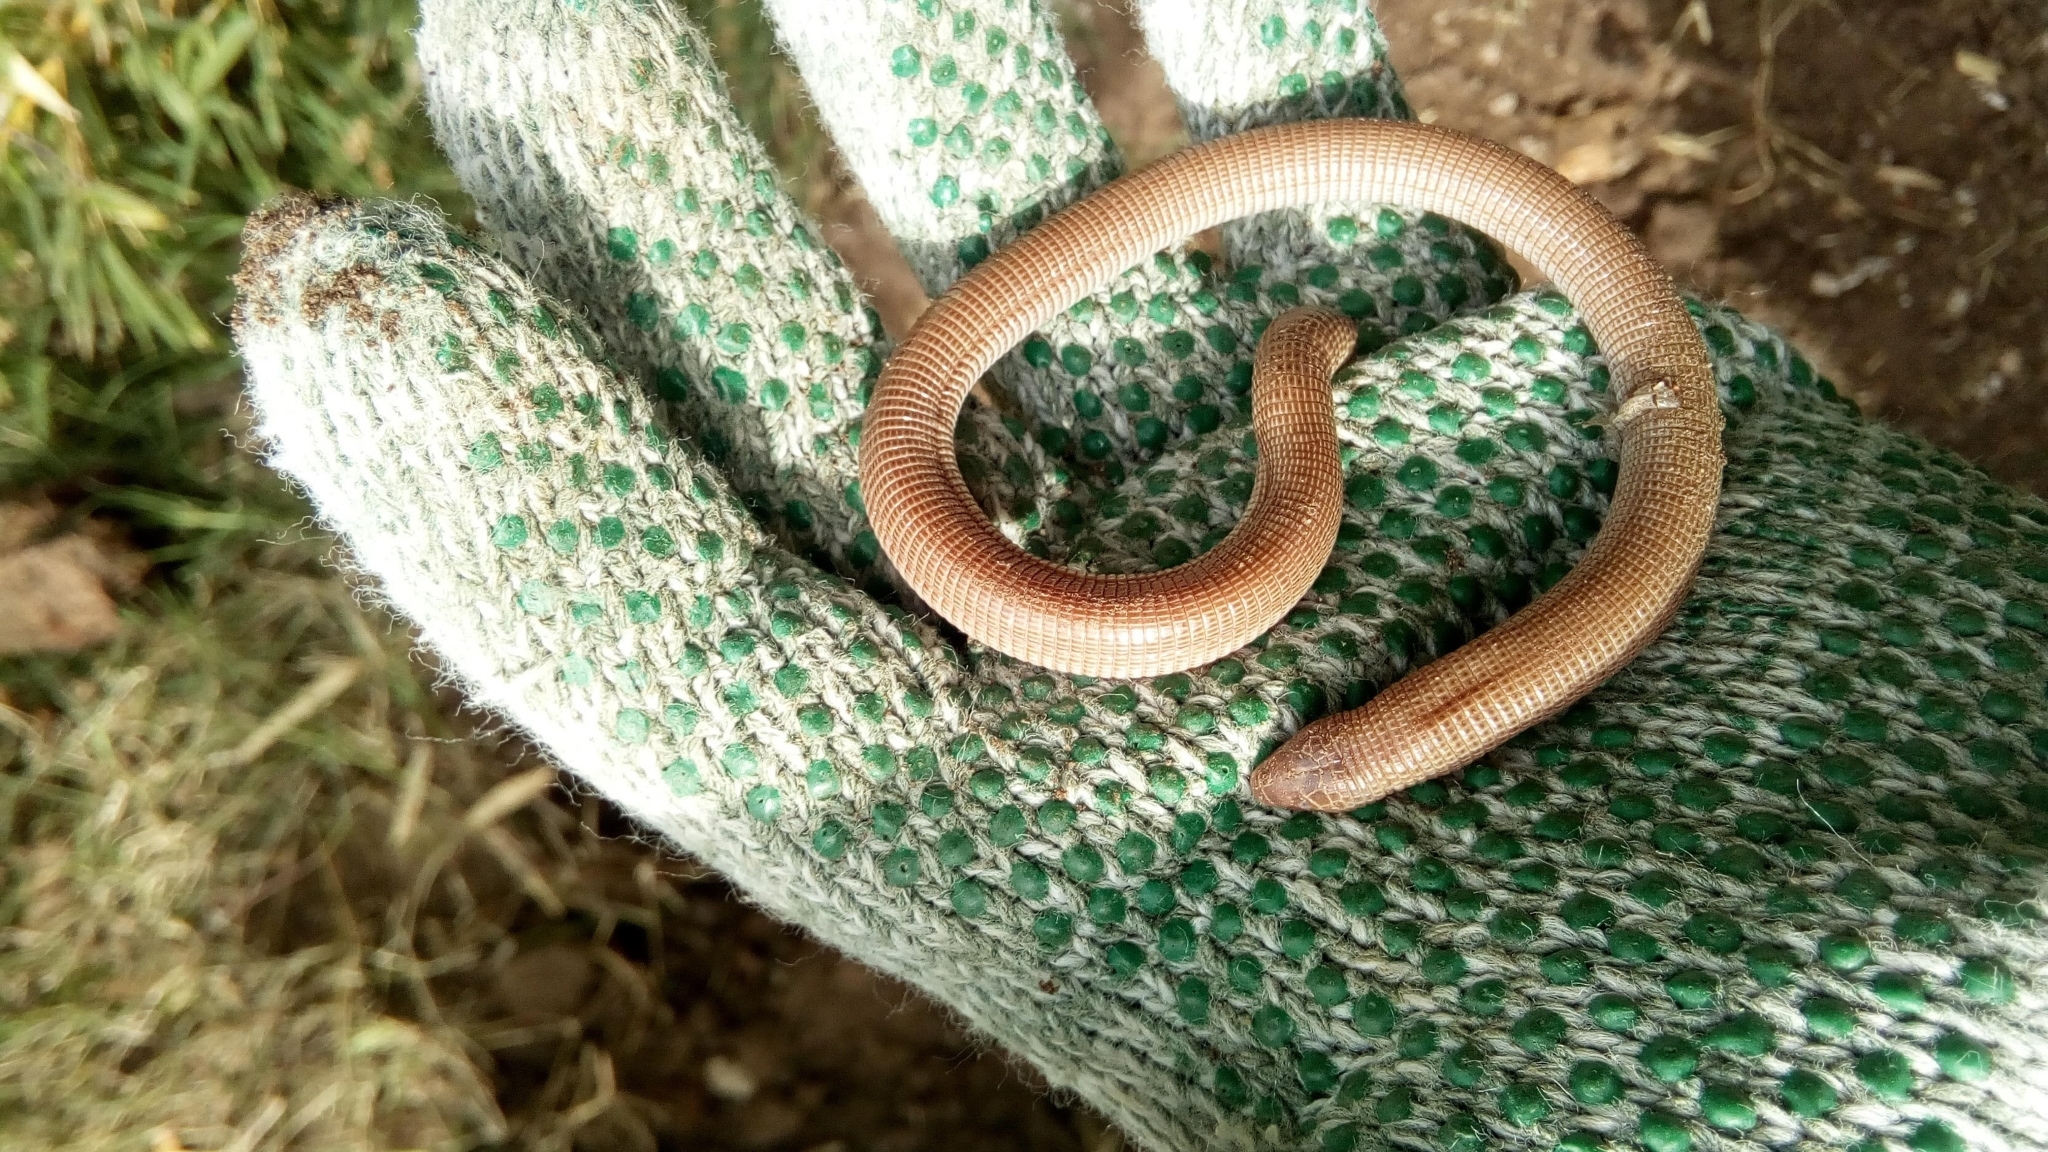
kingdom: Animalia
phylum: Chordata
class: Squamata
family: Amphisbaenidae
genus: Amphisbaena
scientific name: Amphisbaena darwinii
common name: Darwin's ringed worm lizard
